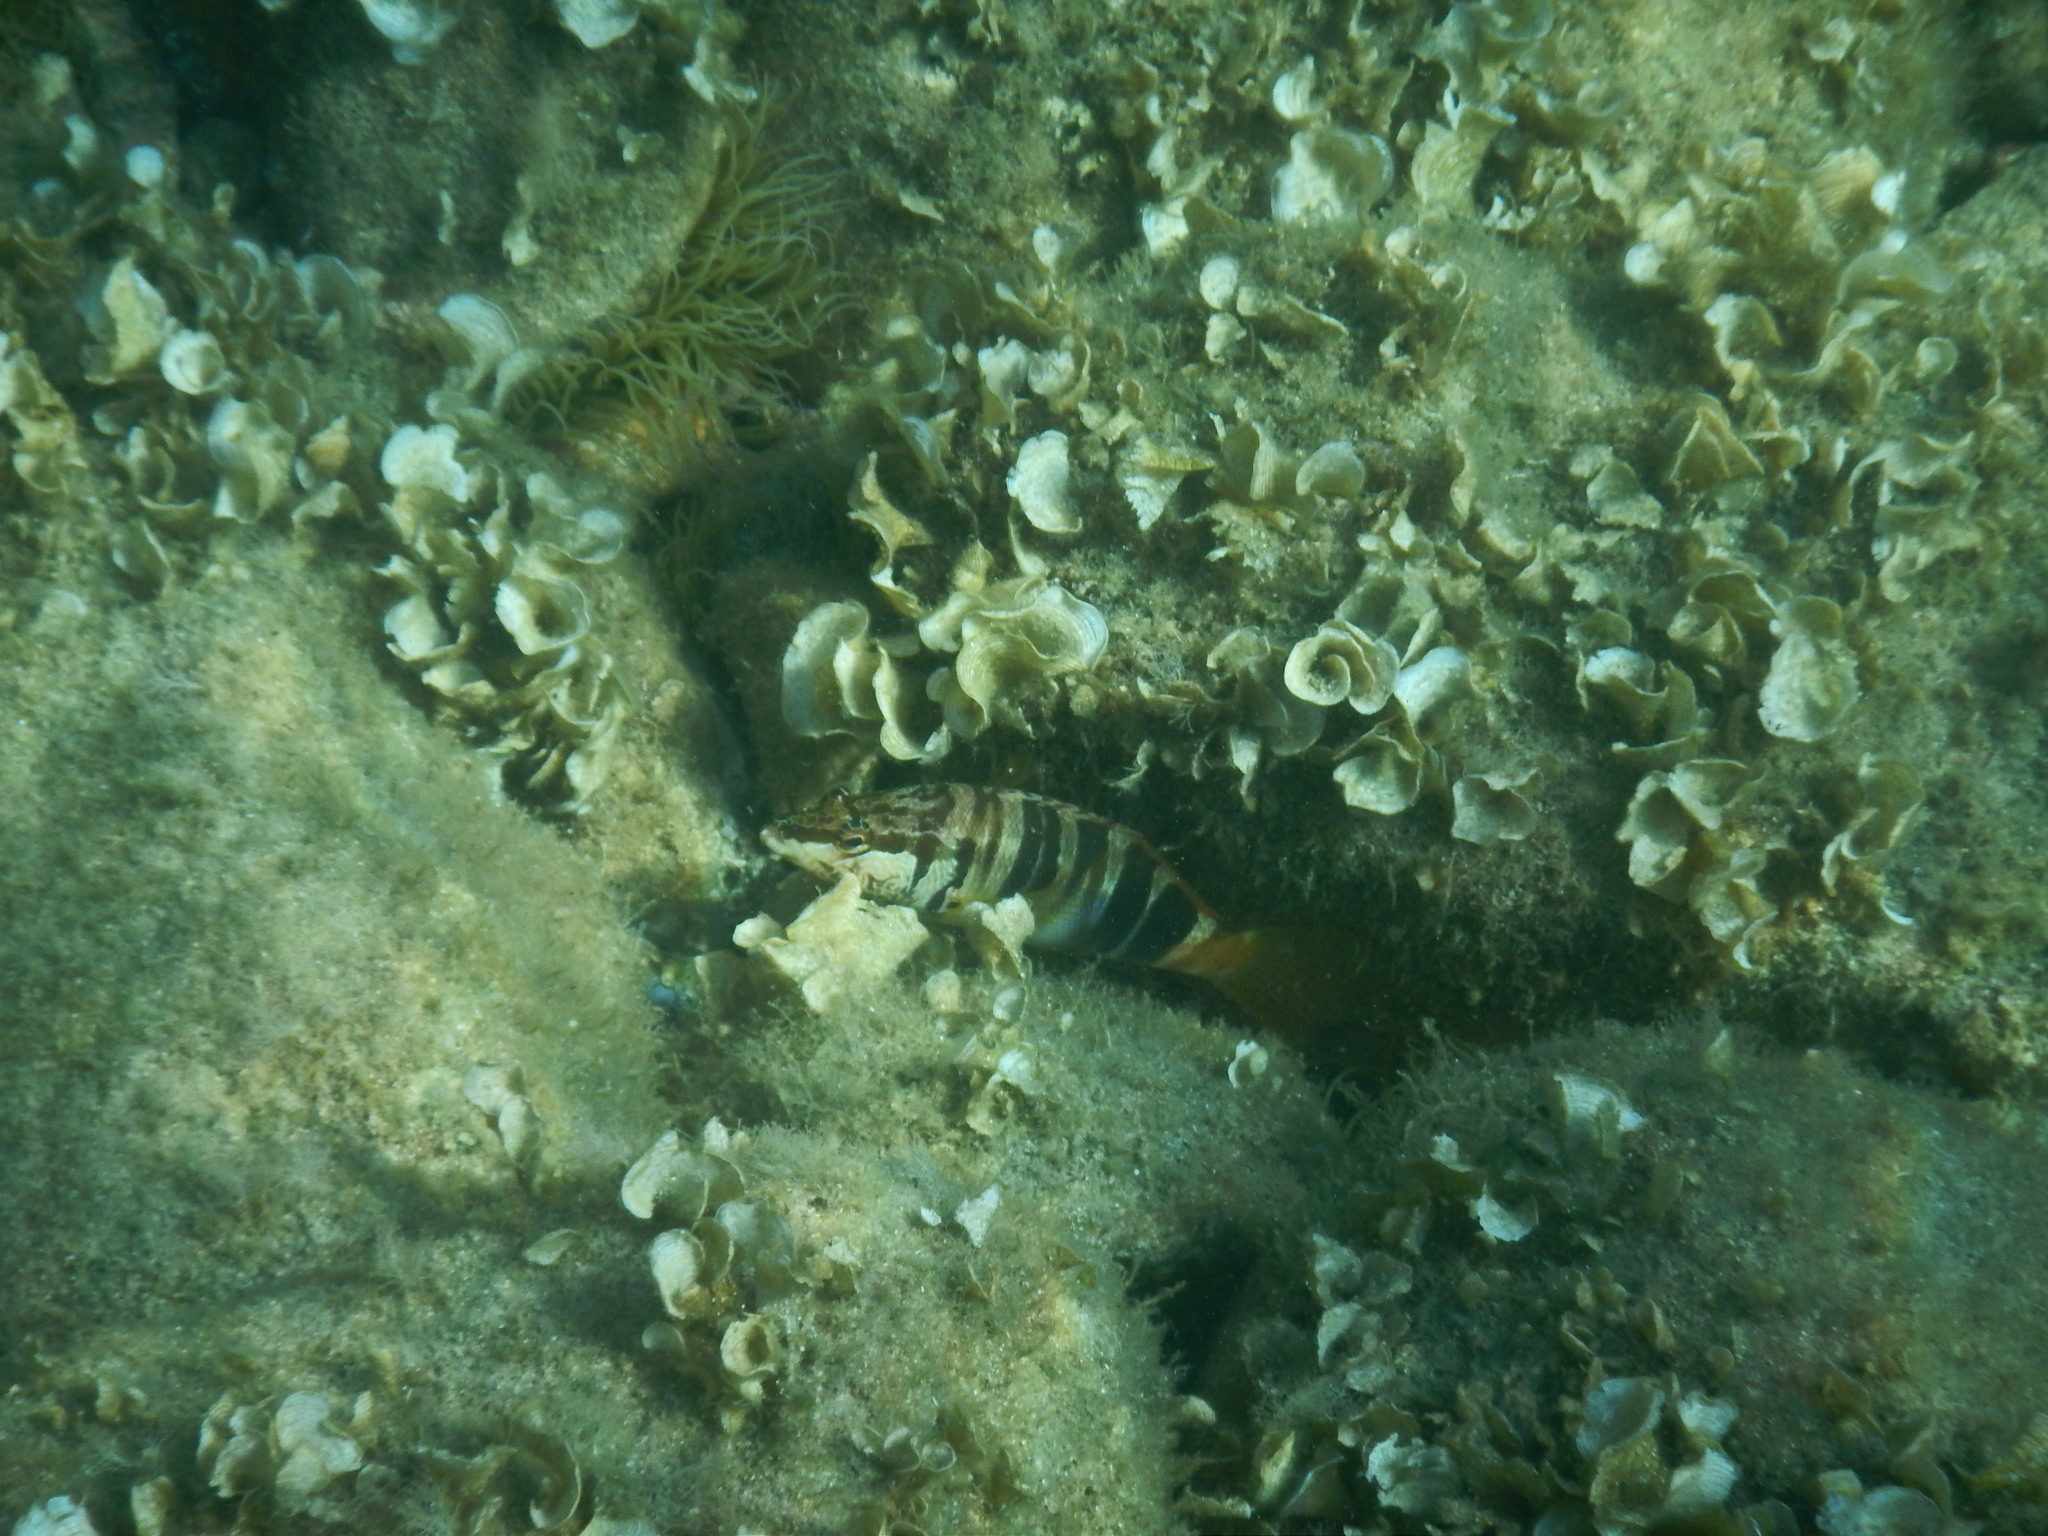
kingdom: Animalia
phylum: Chordata
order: Perciformes
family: Serranidae
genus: Serranus
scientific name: Serranus scriba
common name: Painted comber
